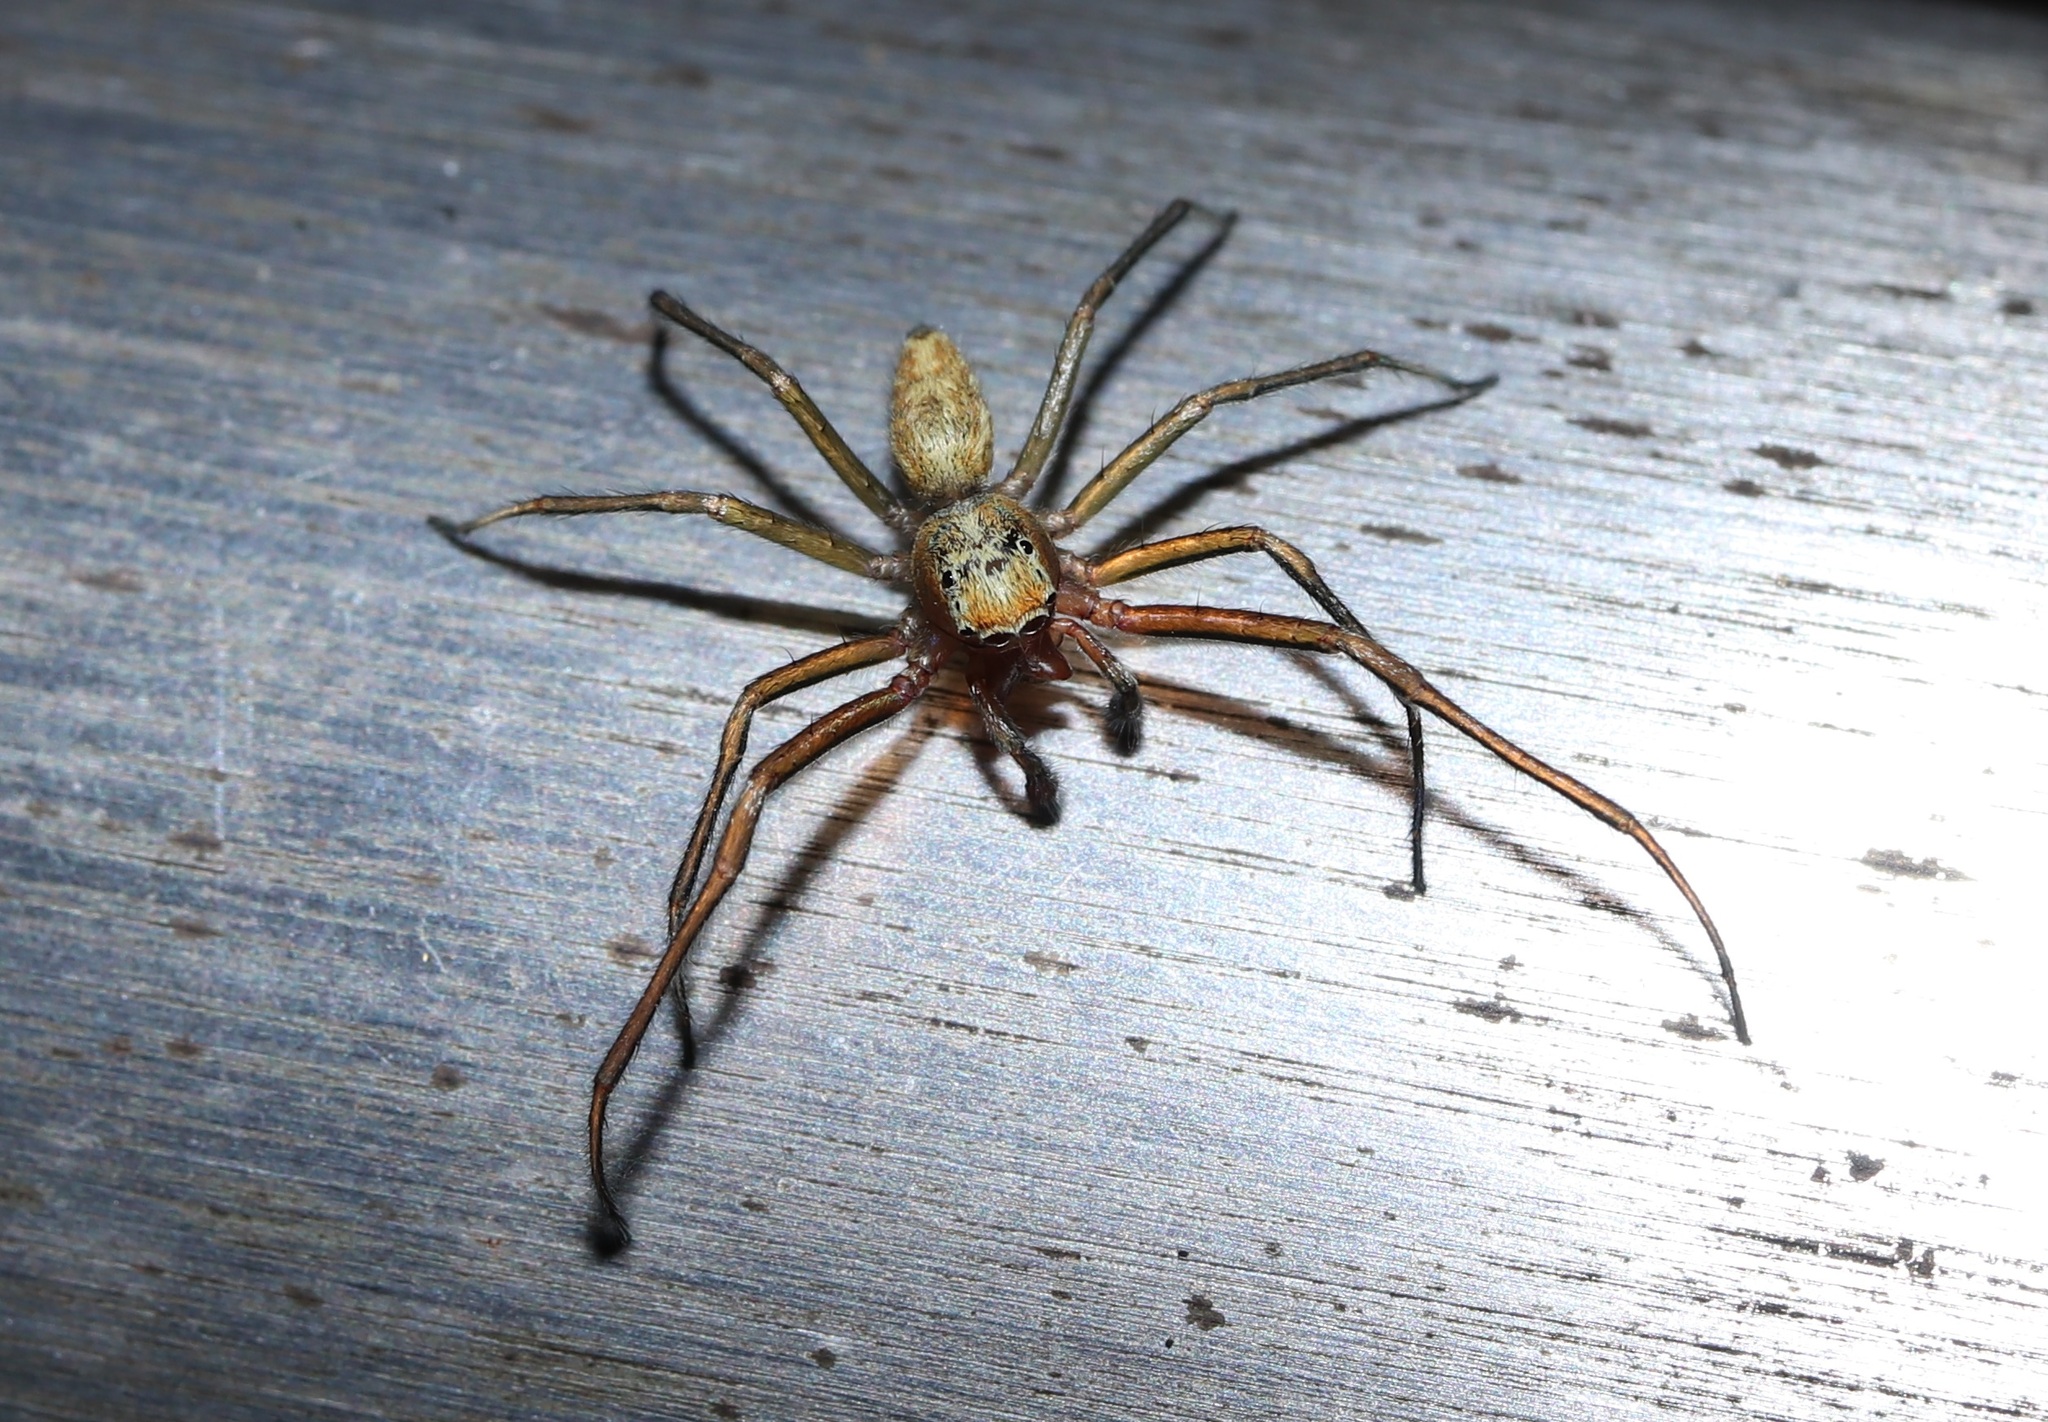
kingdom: Animalia
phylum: Arthropoda
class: Arachnida
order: Araneae
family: Salticidae
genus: Phintella
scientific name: Phintella abnormis
